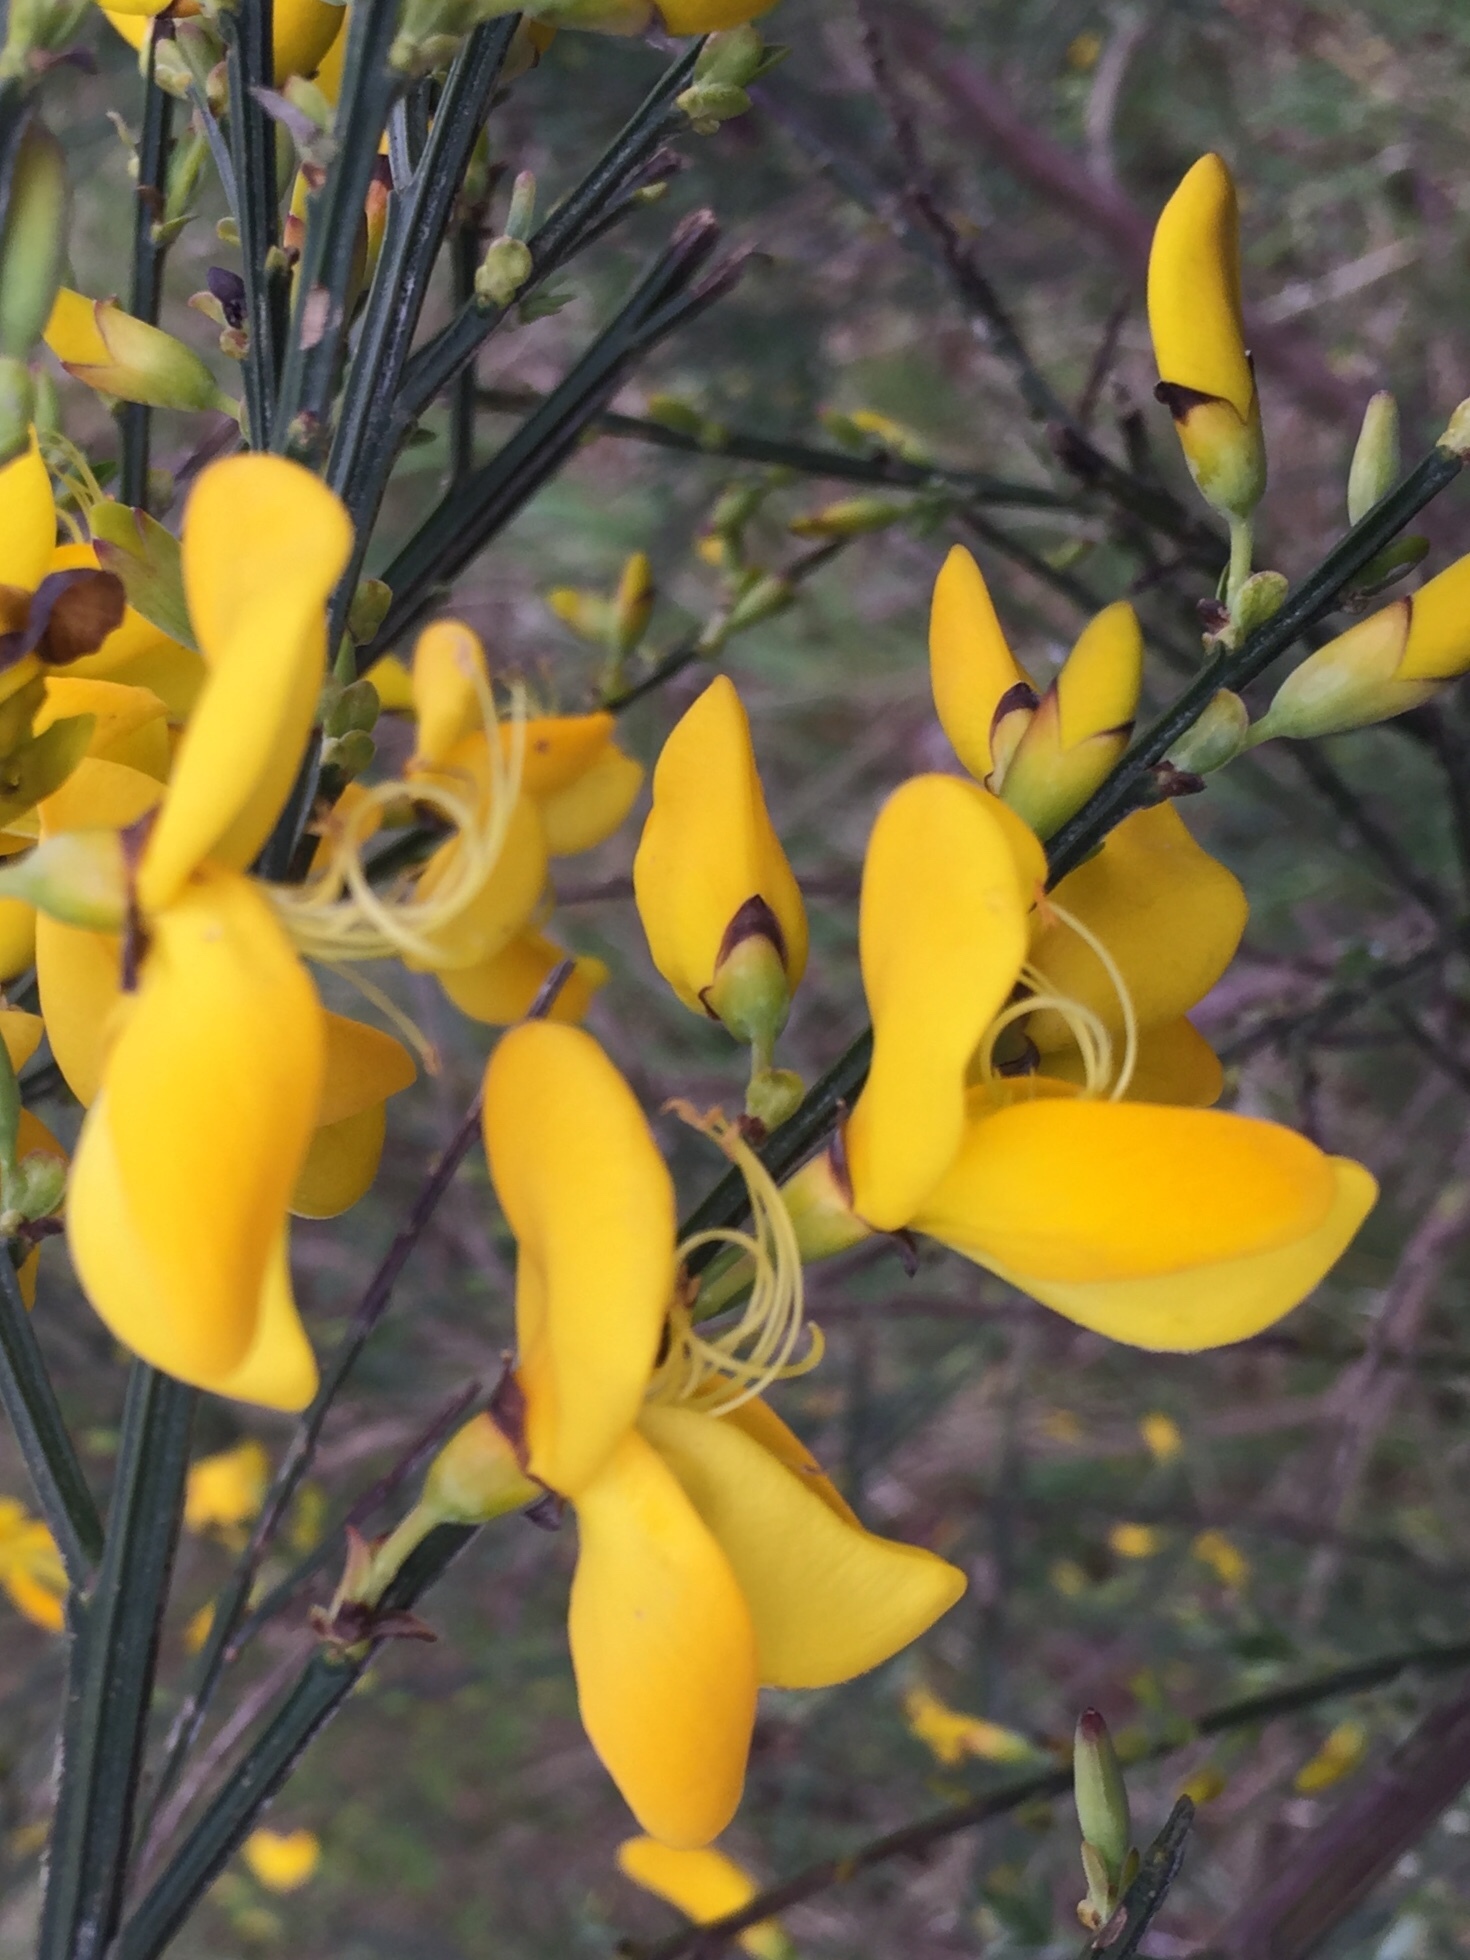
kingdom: Plantae
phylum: Tracheophyta
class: Magnoliopsida
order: Fabales
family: Fabaceae
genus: Cytisus
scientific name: Cytisus scoparius
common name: Scotch broom
